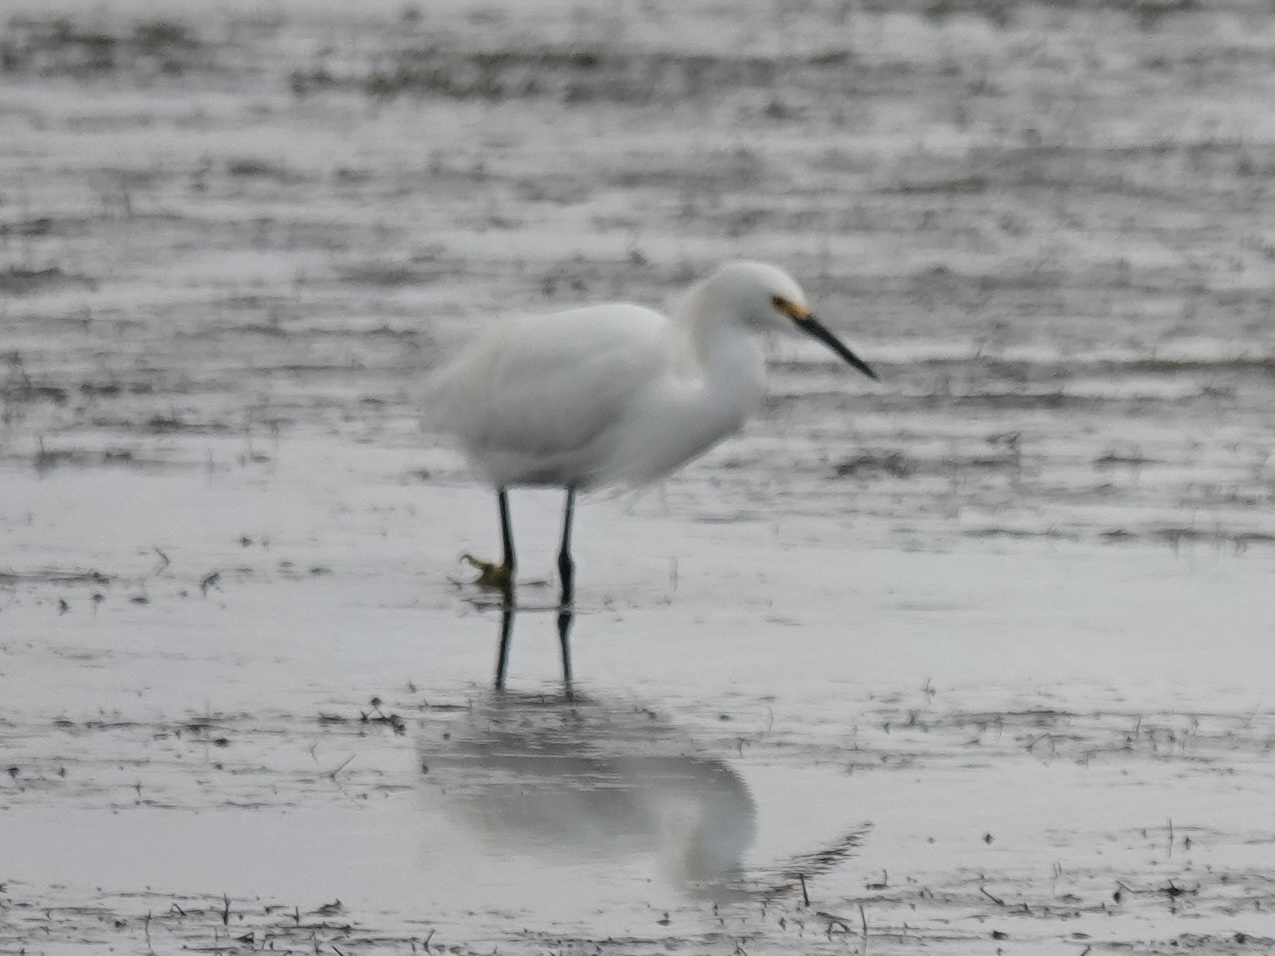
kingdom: Animalia
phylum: Chordata
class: Aves
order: Pelecaniformes
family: Ardeidae
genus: Egretta
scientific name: Egretta thula
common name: Snowy egret
